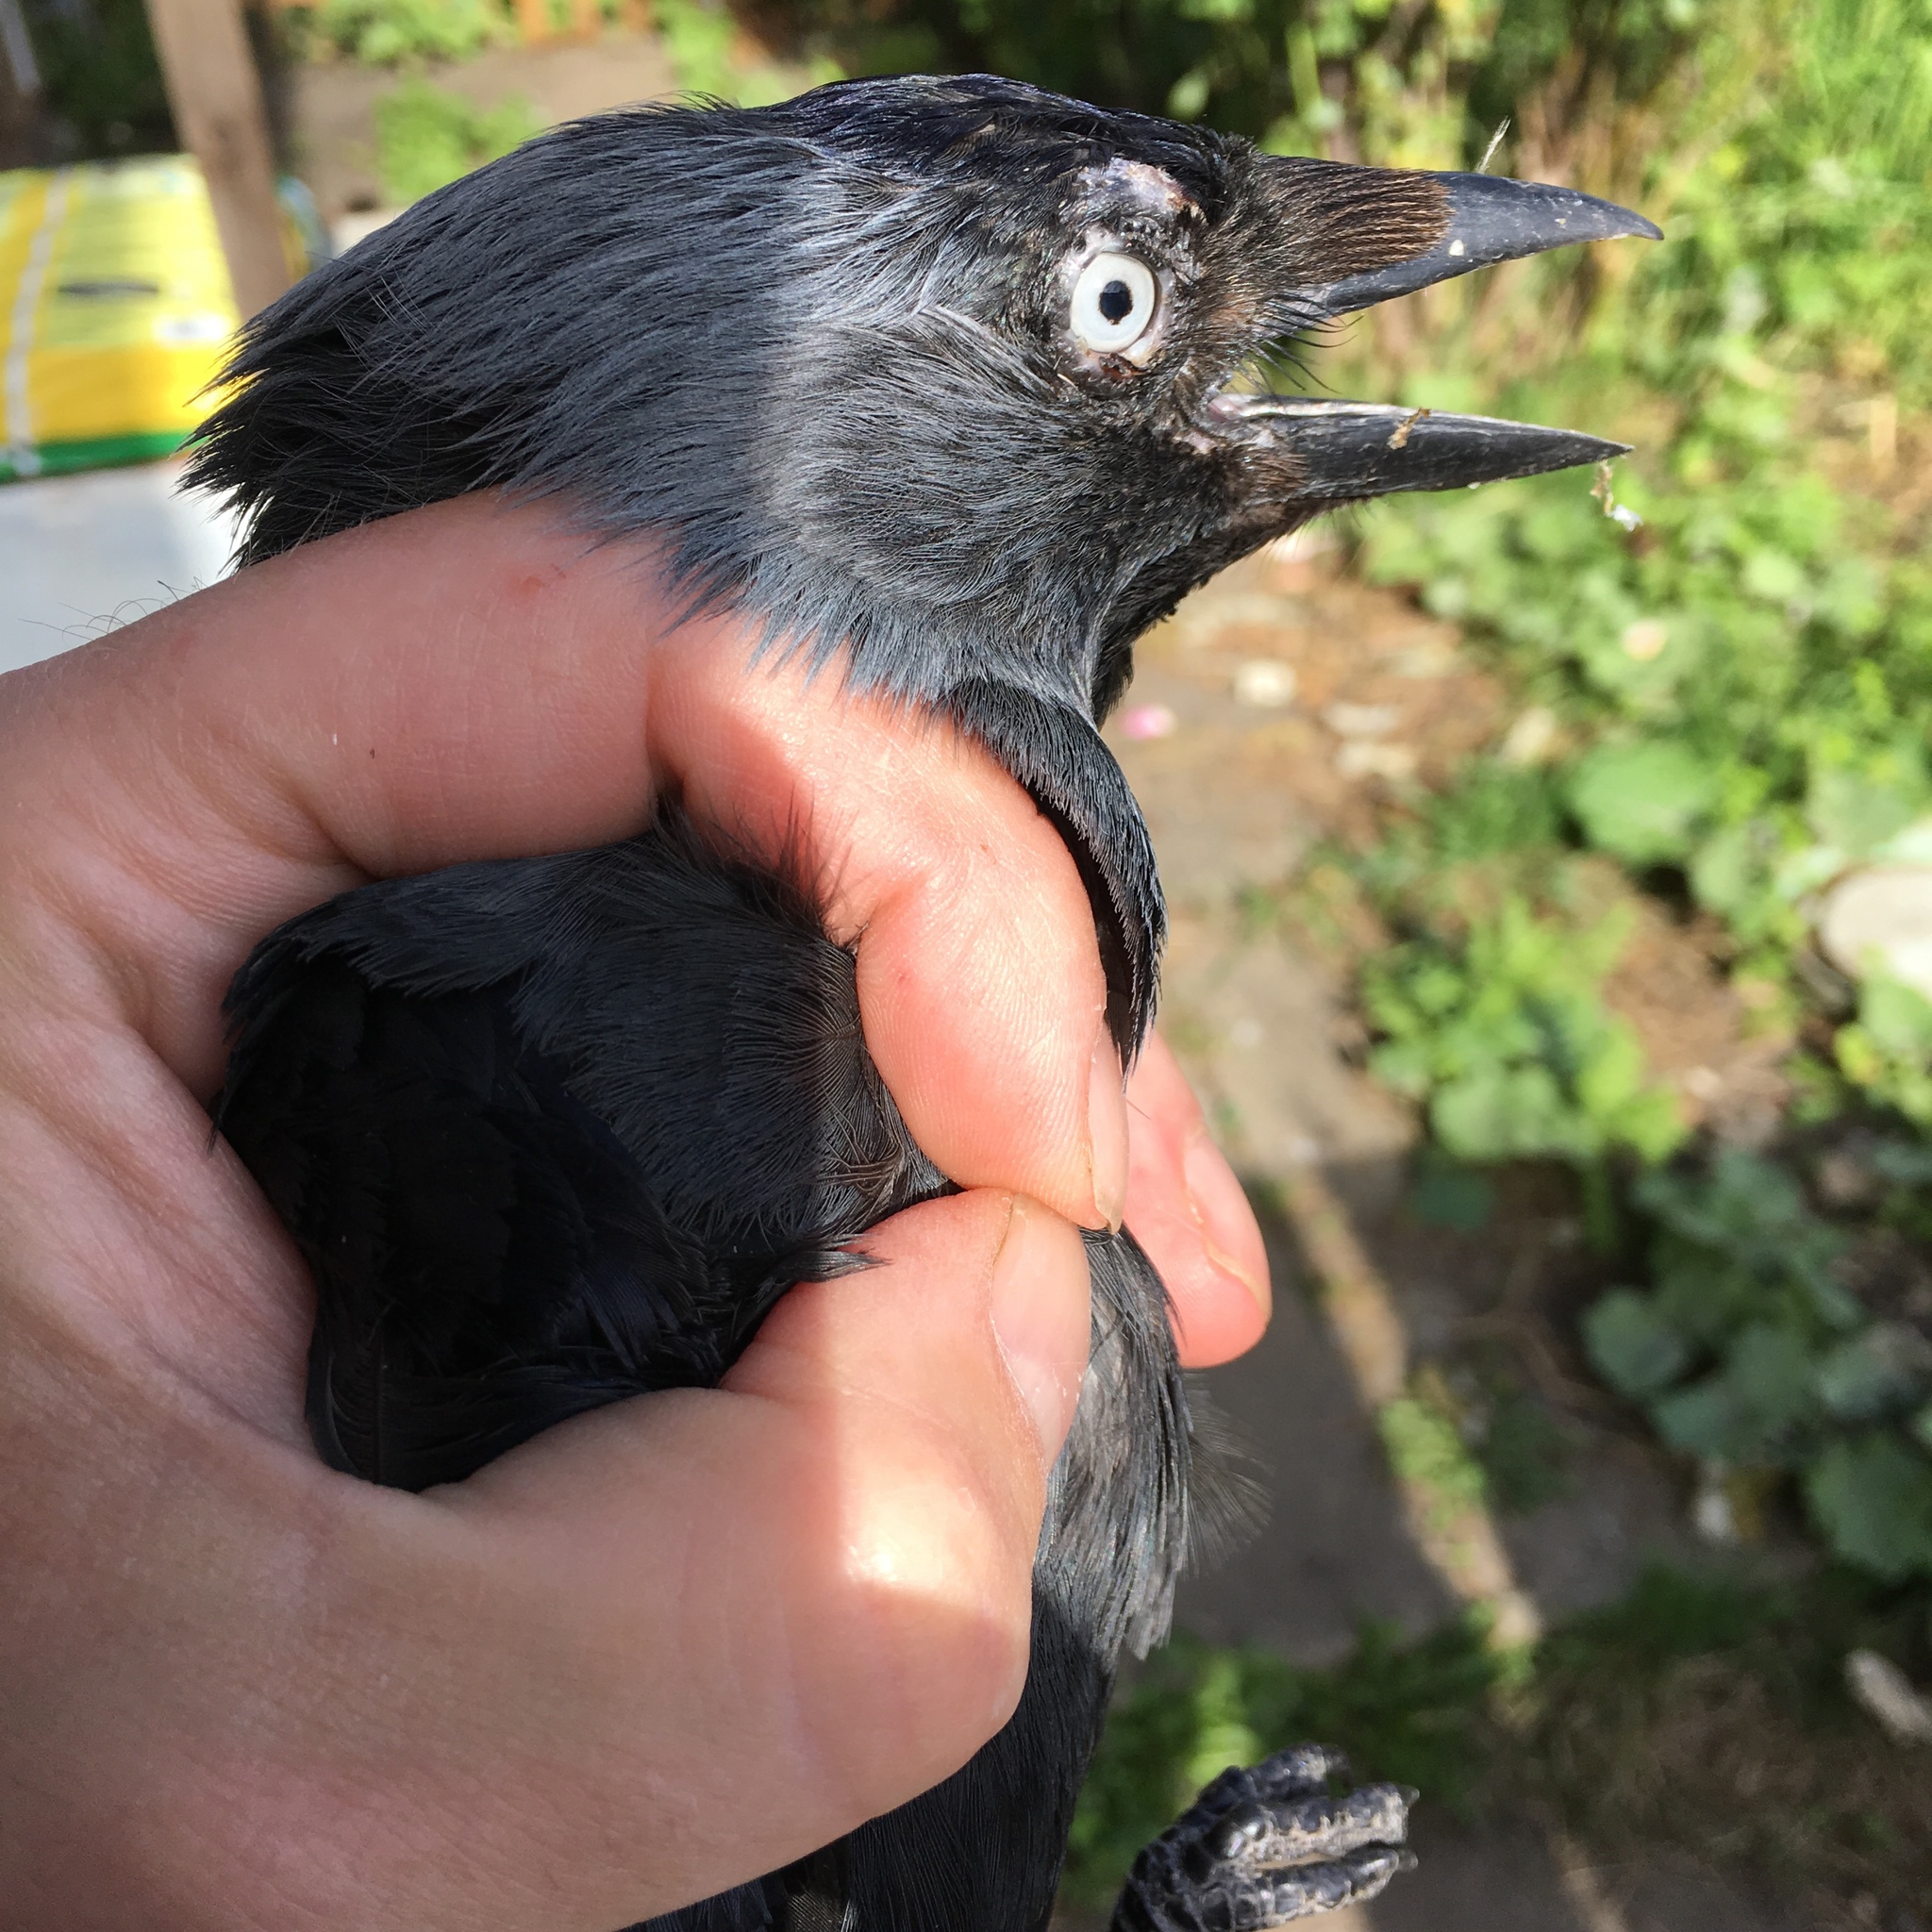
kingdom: Animalia
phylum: Chordata
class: Aves
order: Passeriformes
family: Corvidae
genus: Coloeus
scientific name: Coloeus monedula
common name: Western jackdaw
